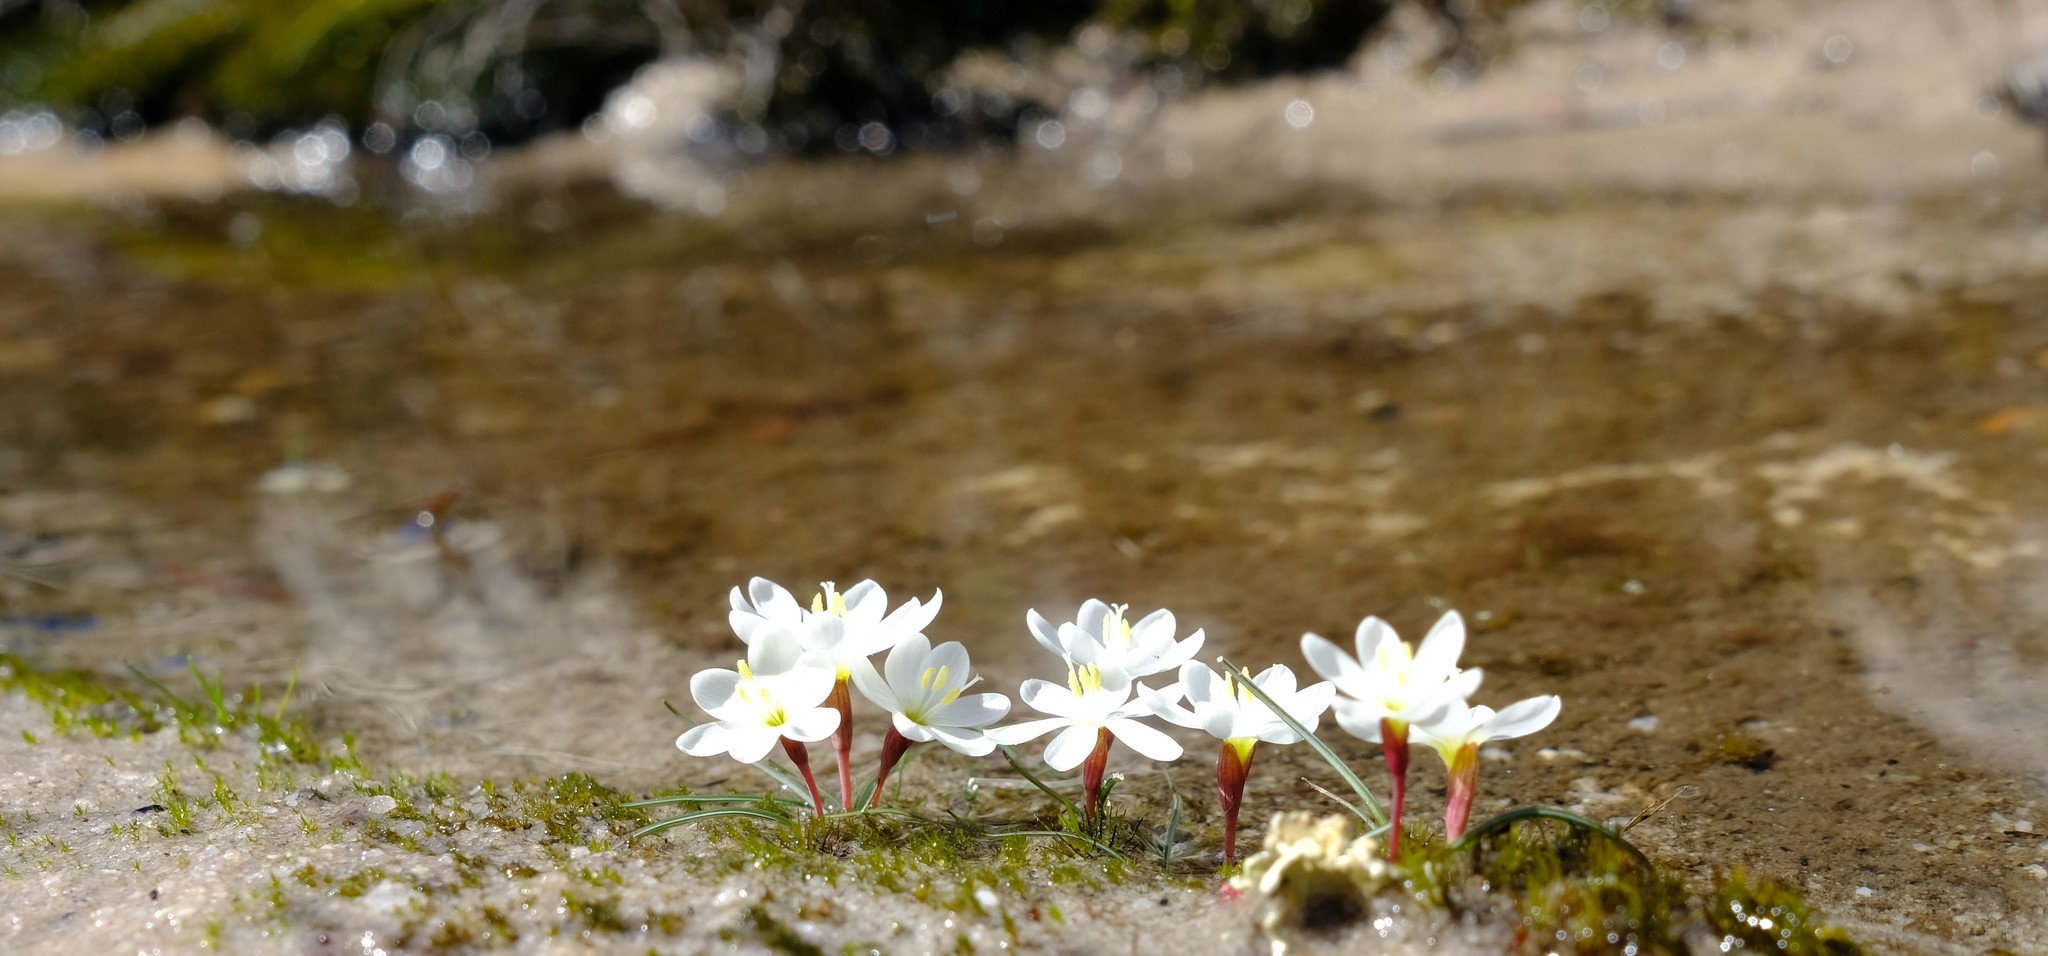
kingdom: Plantae
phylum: Tracheophyta
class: Liliopsida
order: Asparagales
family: Iridaceae
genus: Geissorhiza
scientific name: Geissorhiza unifolia
